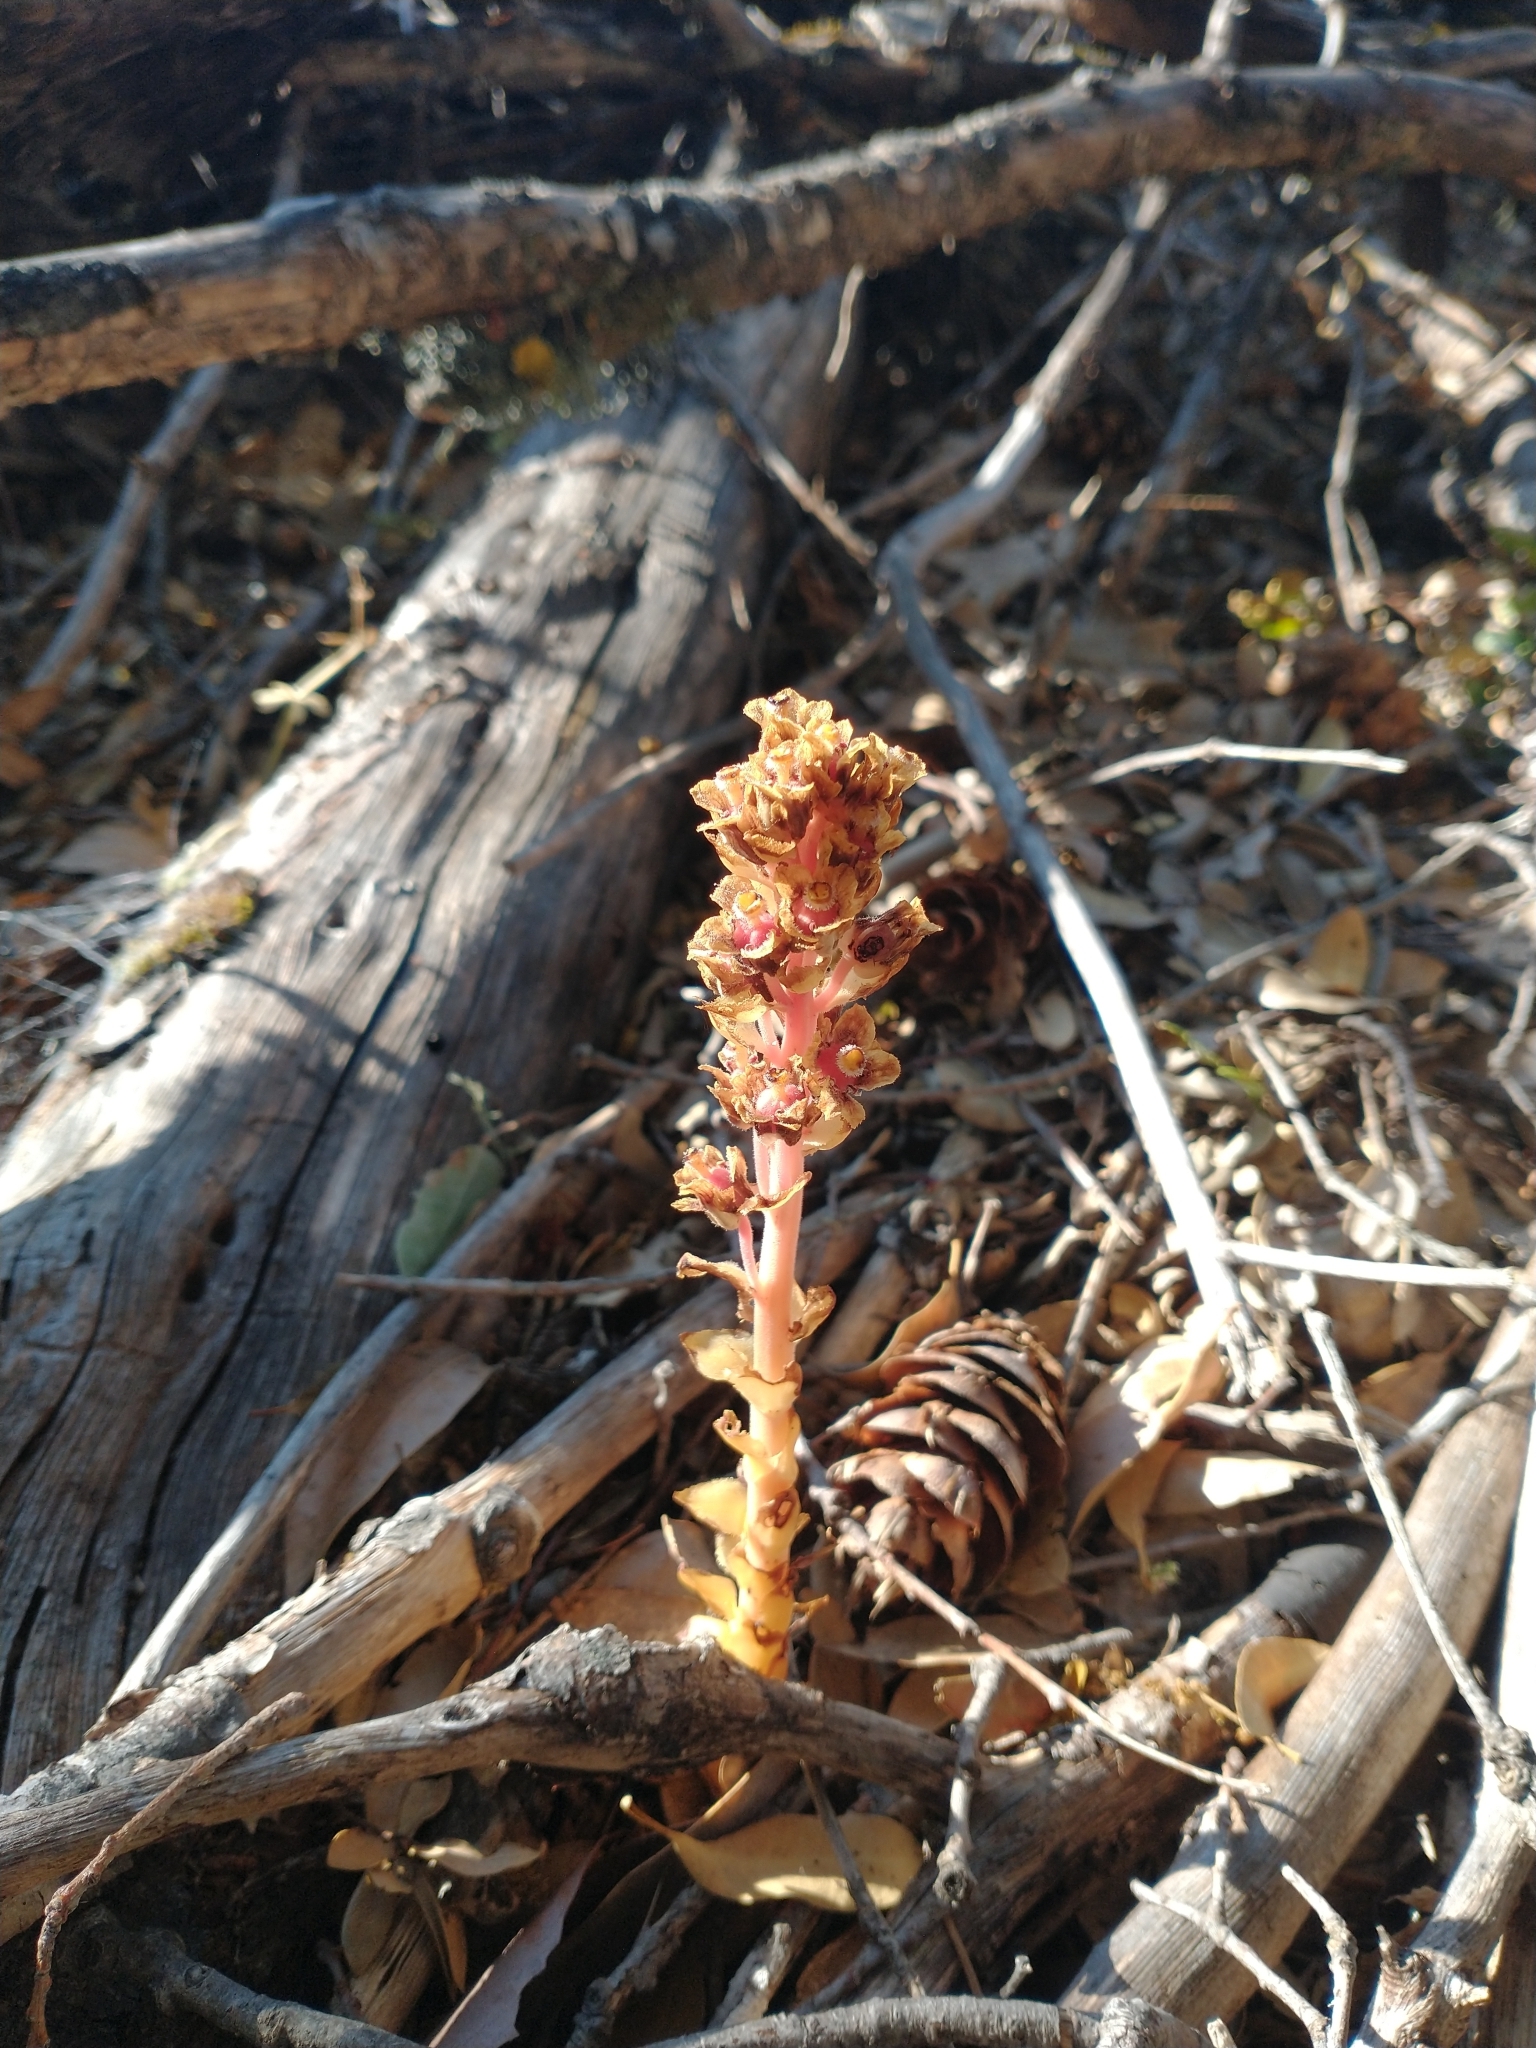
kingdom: Plantae
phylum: Tracheophyta
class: Magnoliopsida
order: Ericales
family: Ericaceae
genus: Hypopitys
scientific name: Hypopitys monotropa
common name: Yellow bird's-nest
